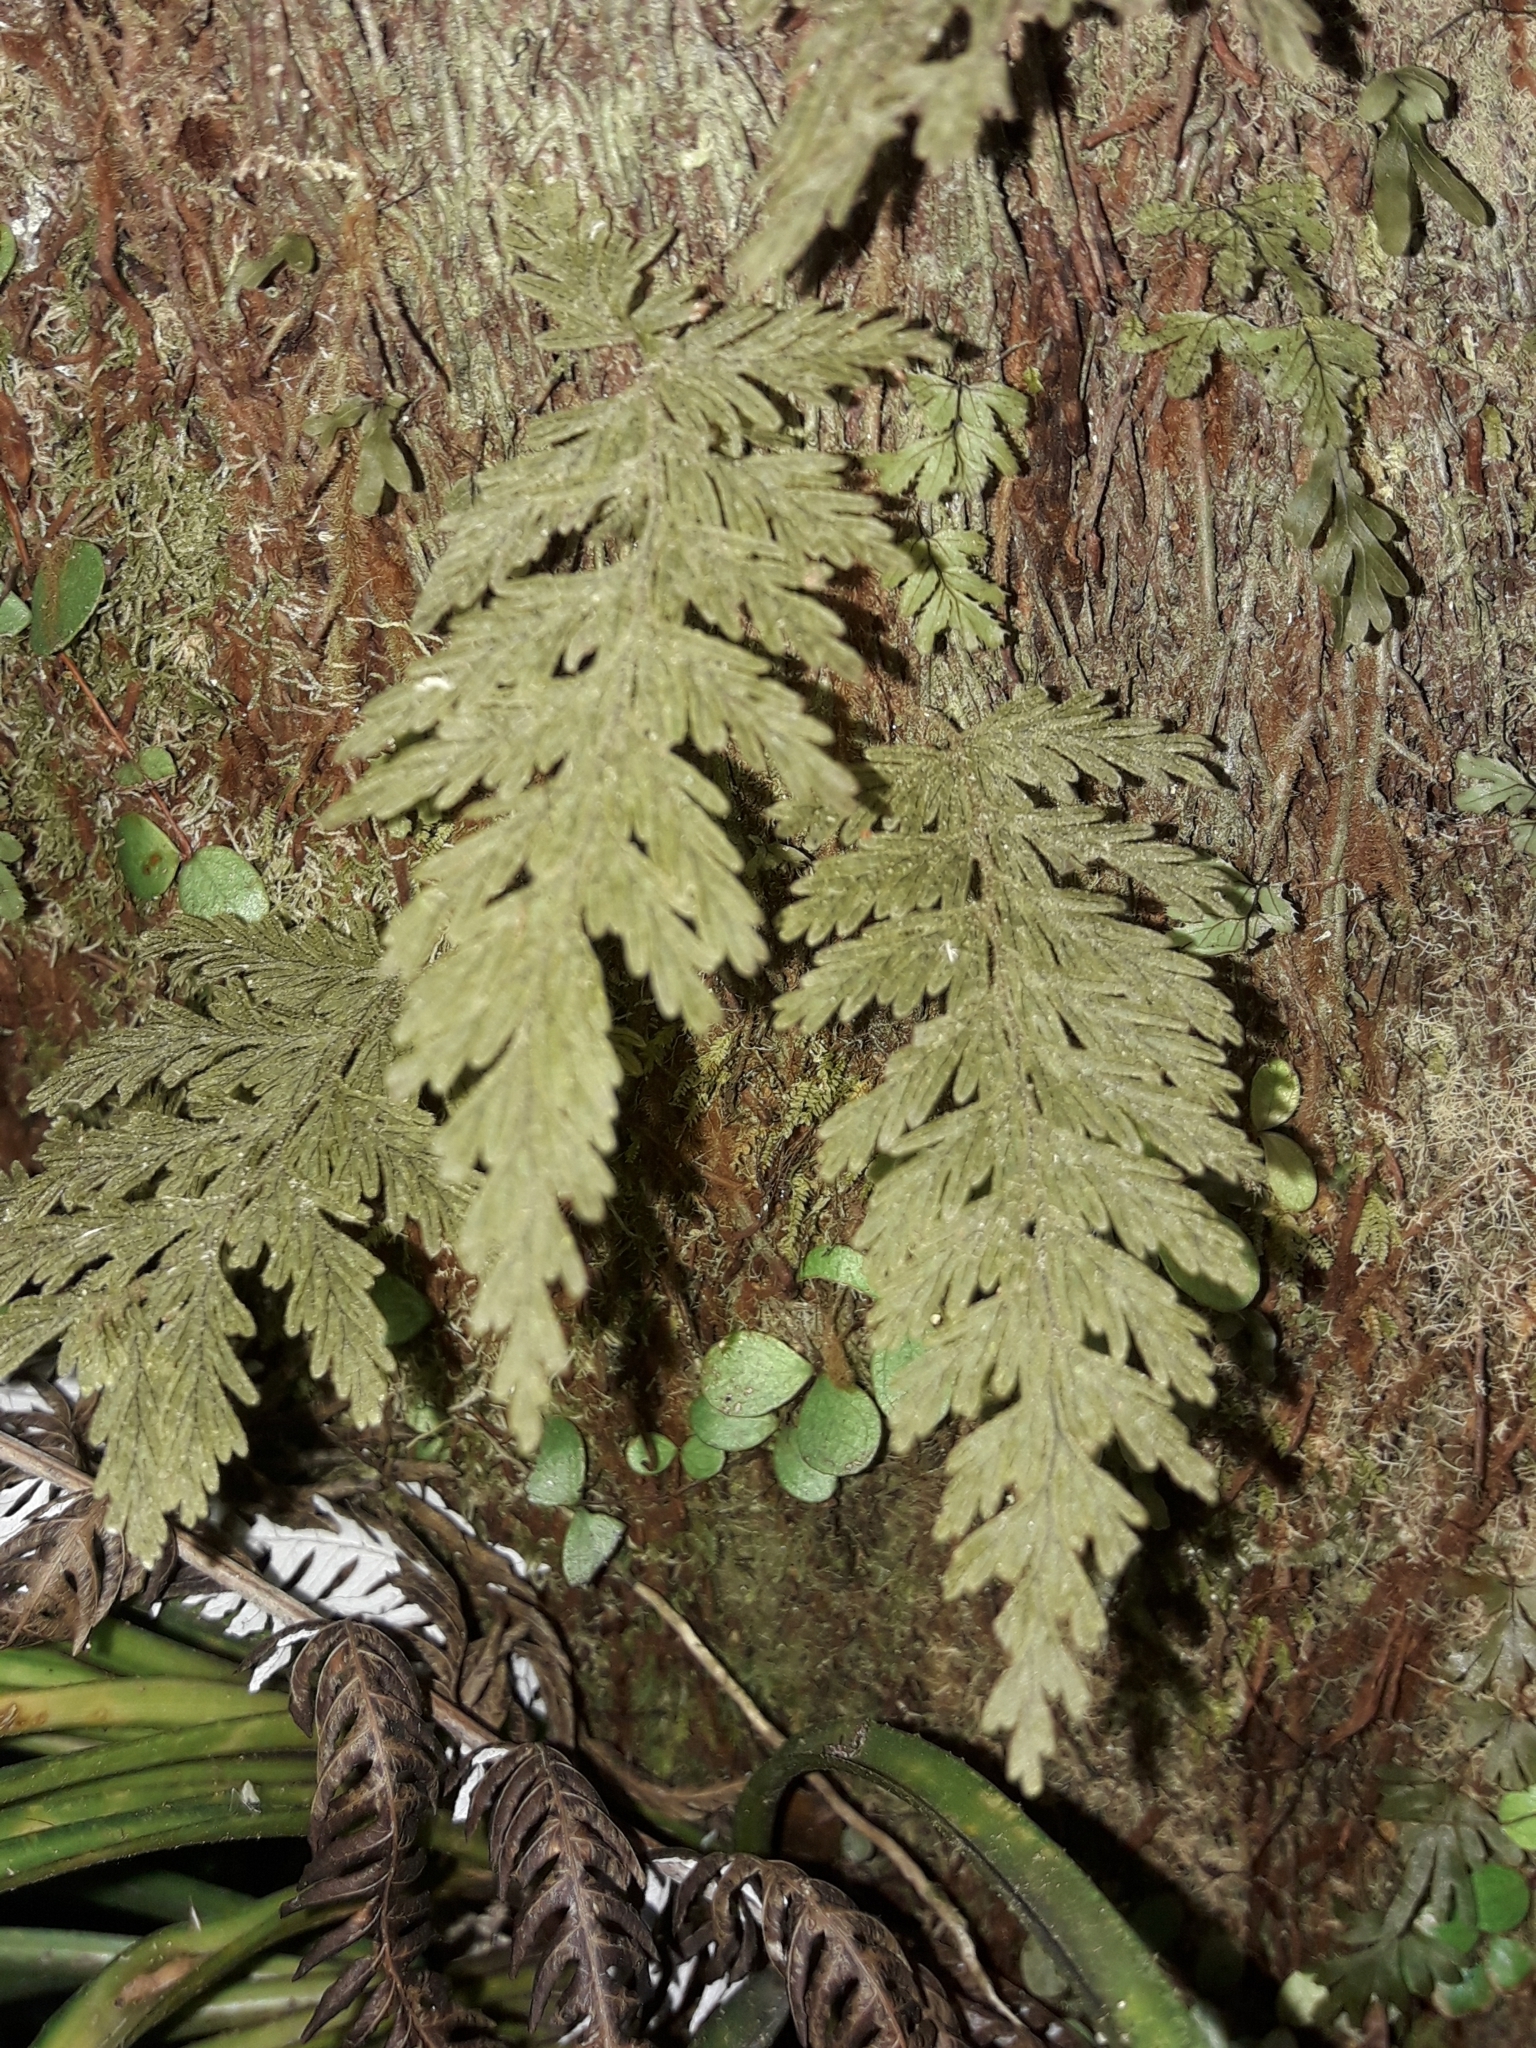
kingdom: Plantae
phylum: Tracheophyta
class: Polypodiopsida
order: Hymenophyllales
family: Hymenophyllaceae
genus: Hymenophyllum
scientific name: Hymenophyllum frankliniae
